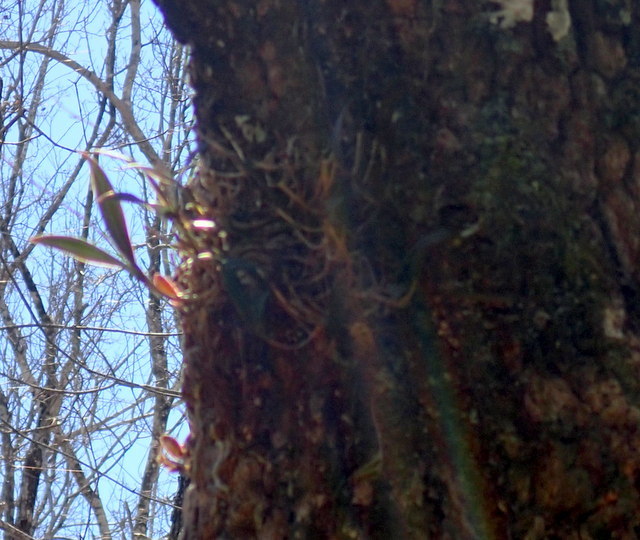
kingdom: Plantae
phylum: Tracheophyta
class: Liliopsida
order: Asparagales
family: Orchidaceae
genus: Epidendrum
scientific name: Epidendrum conopseum
